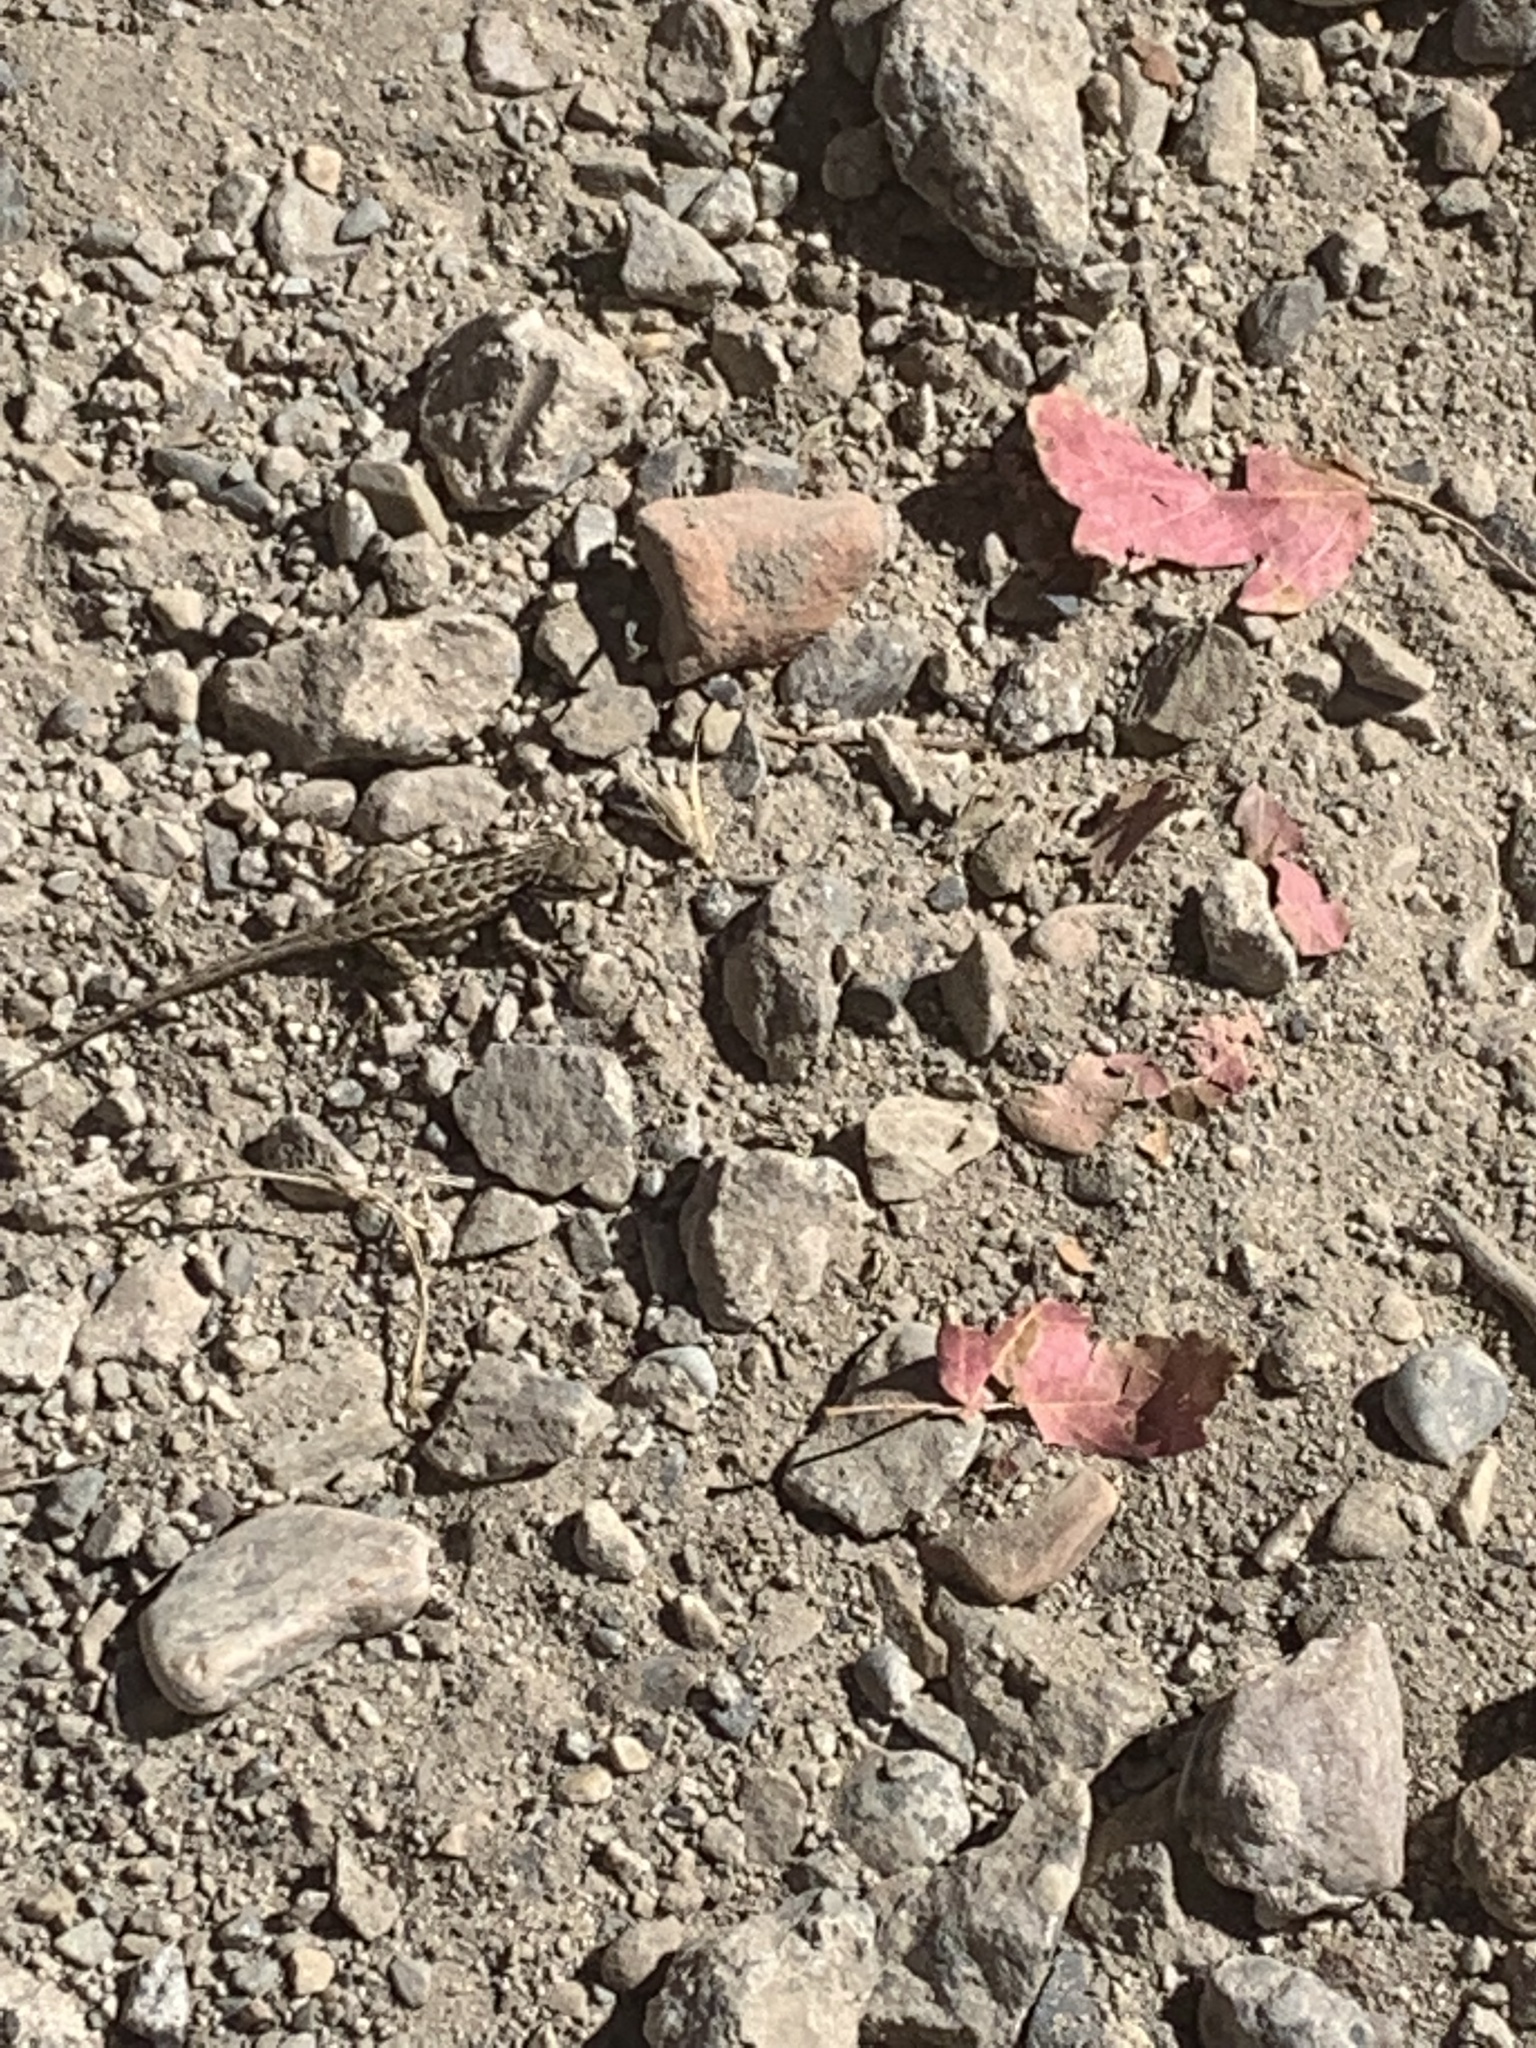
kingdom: Animalia
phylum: Chordata
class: Squamata
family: Phrynosomatidae
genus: Sceloporus
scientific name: Sceloporus graciosus
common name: Sagebrush lizard
